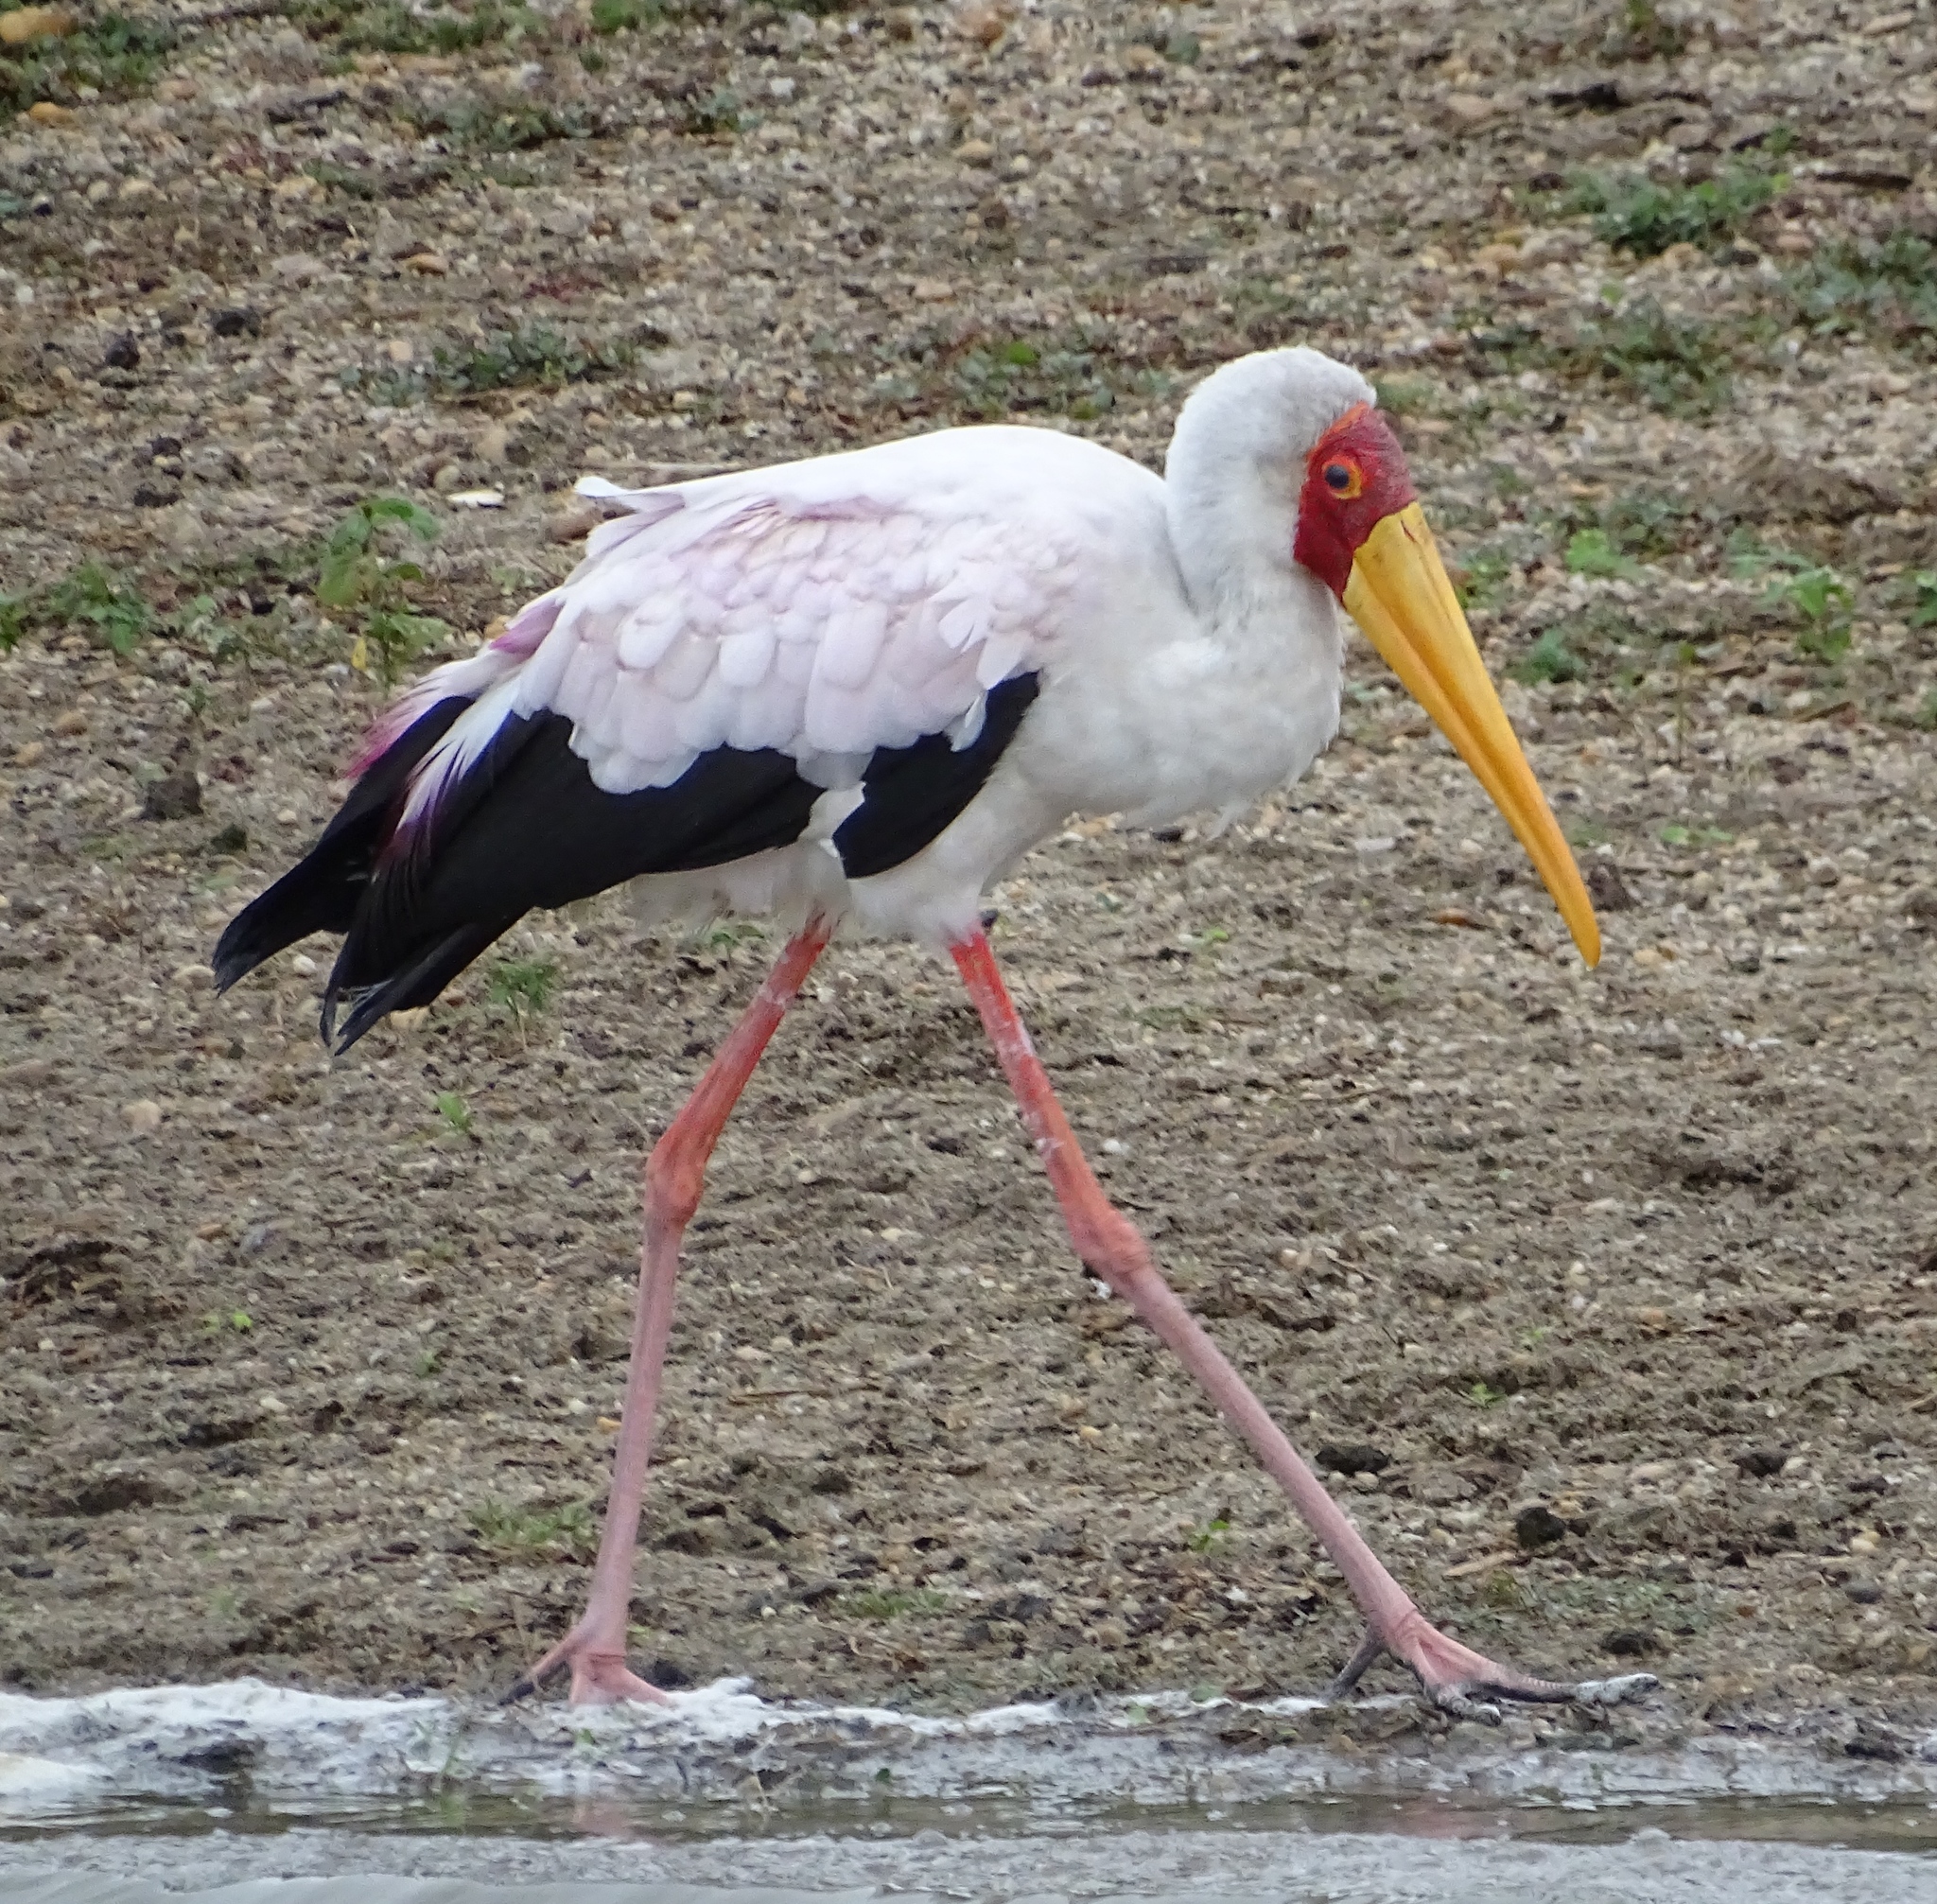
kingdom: Animalia
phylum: Chordata
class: Aves
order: Ciconiiformes
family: Ciconiidae
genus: Mycteria
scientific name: Mycteria ibis
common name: Yellow-billed stork
